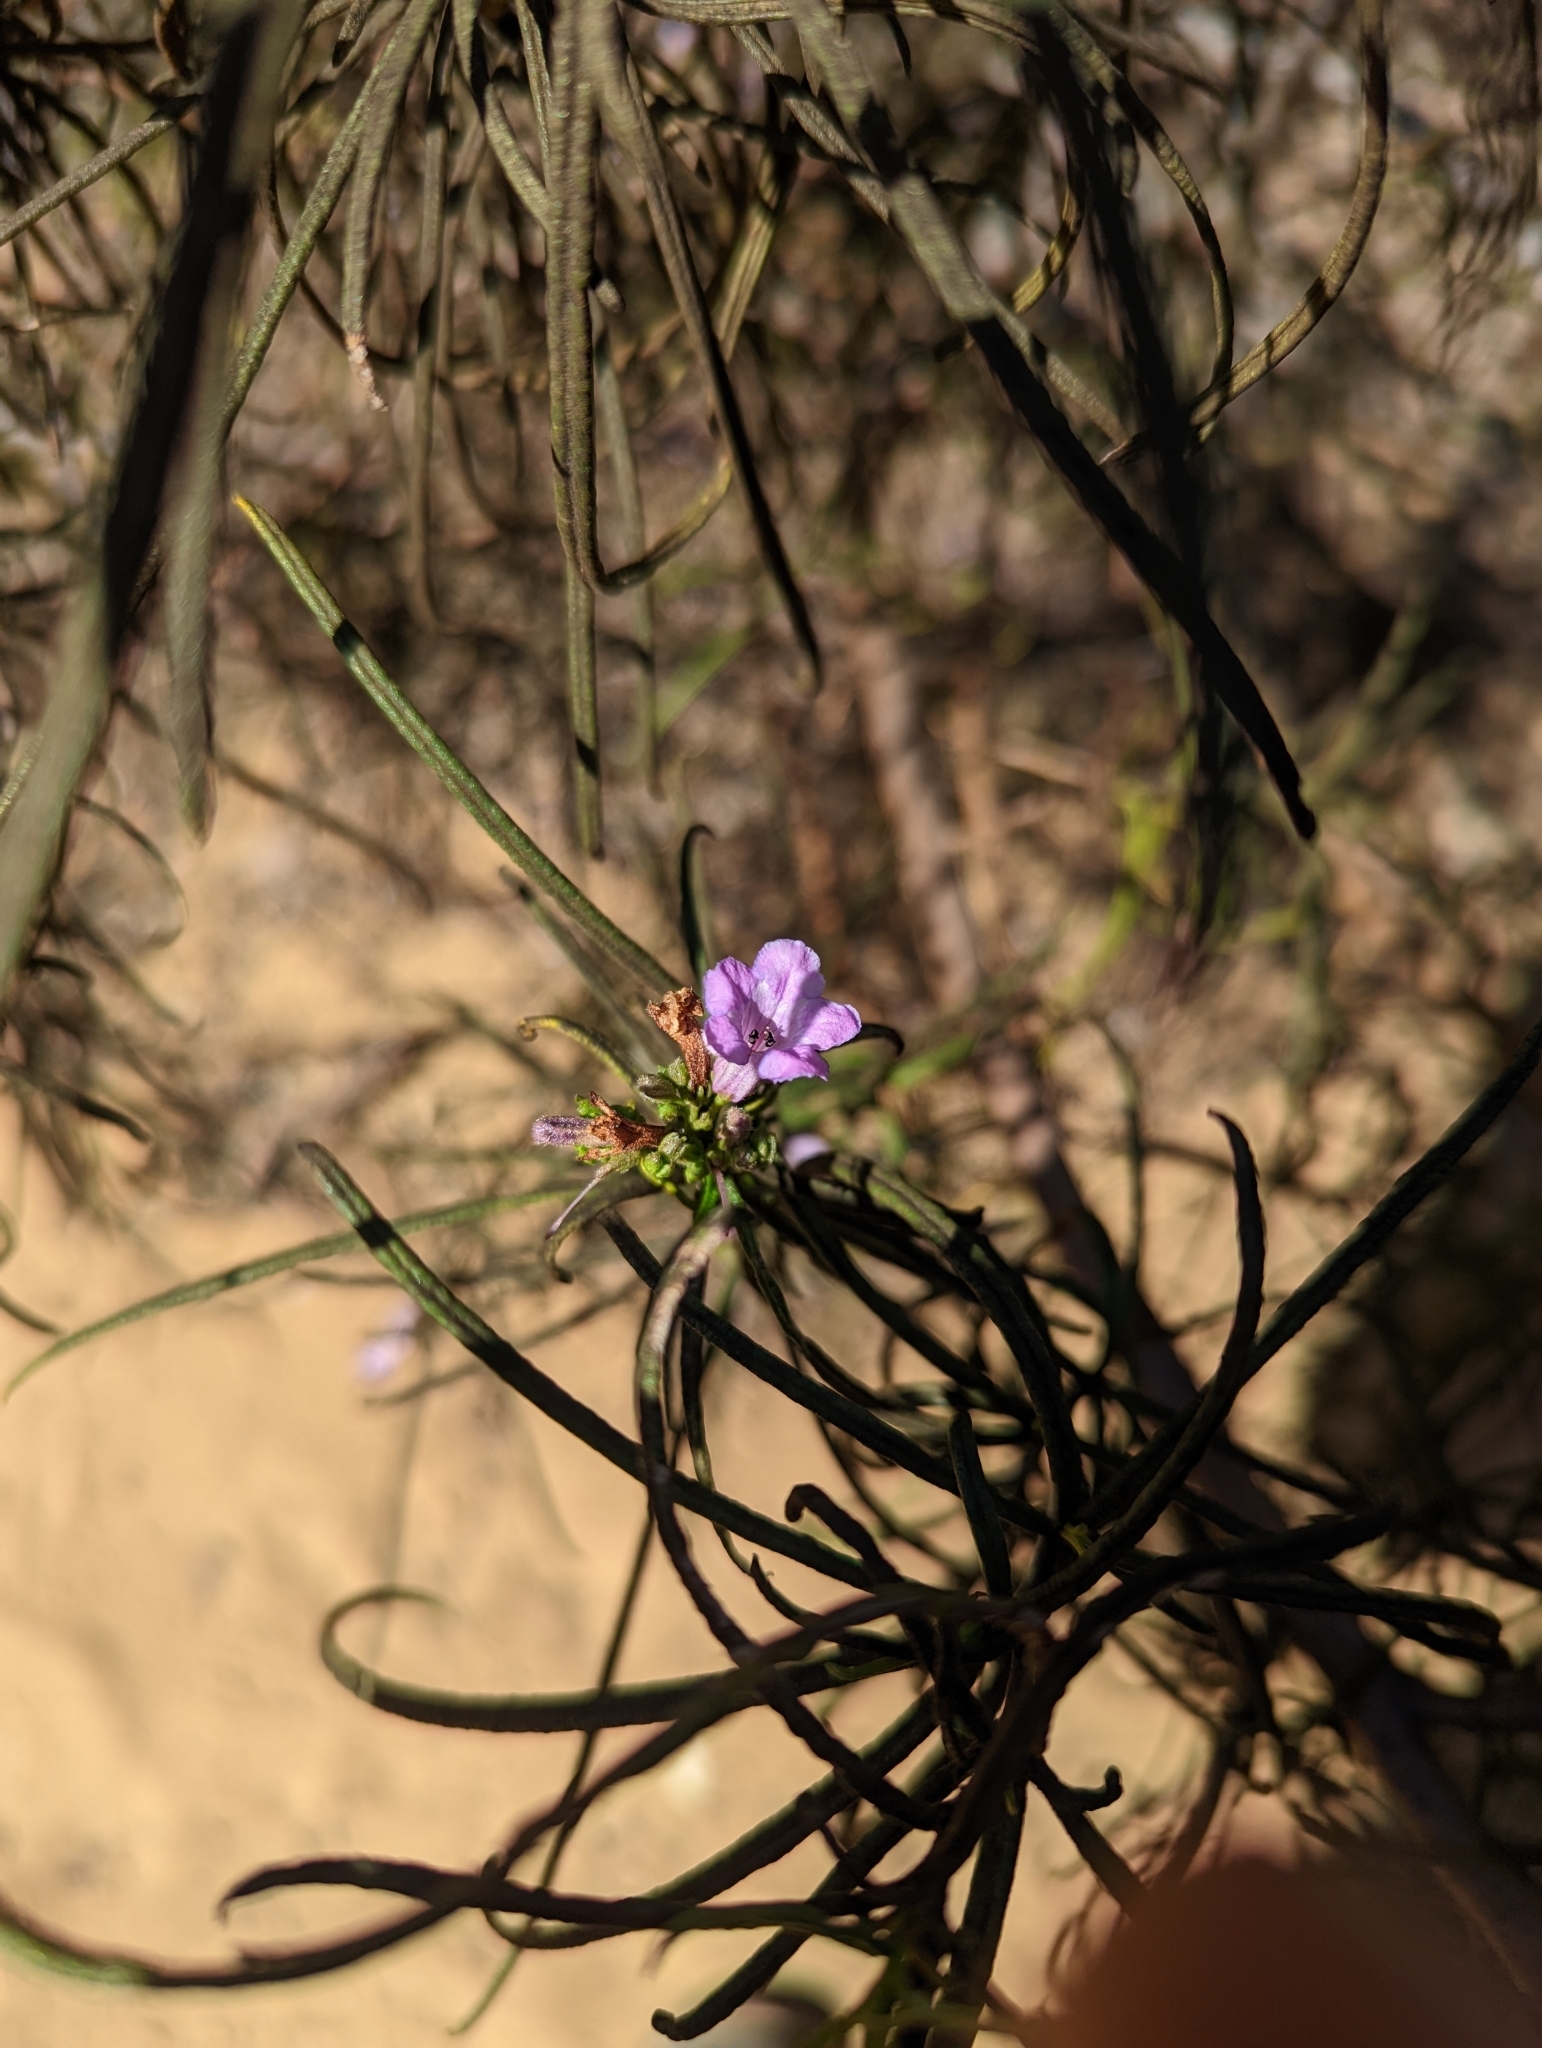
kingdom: Plantae
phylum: Tracheophyta
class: Magnoliopsida
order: Boraginales
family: Namaceae
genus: Eriodictyon
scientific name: Eriodictyon altissimum
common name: Indian knob mountain balm
